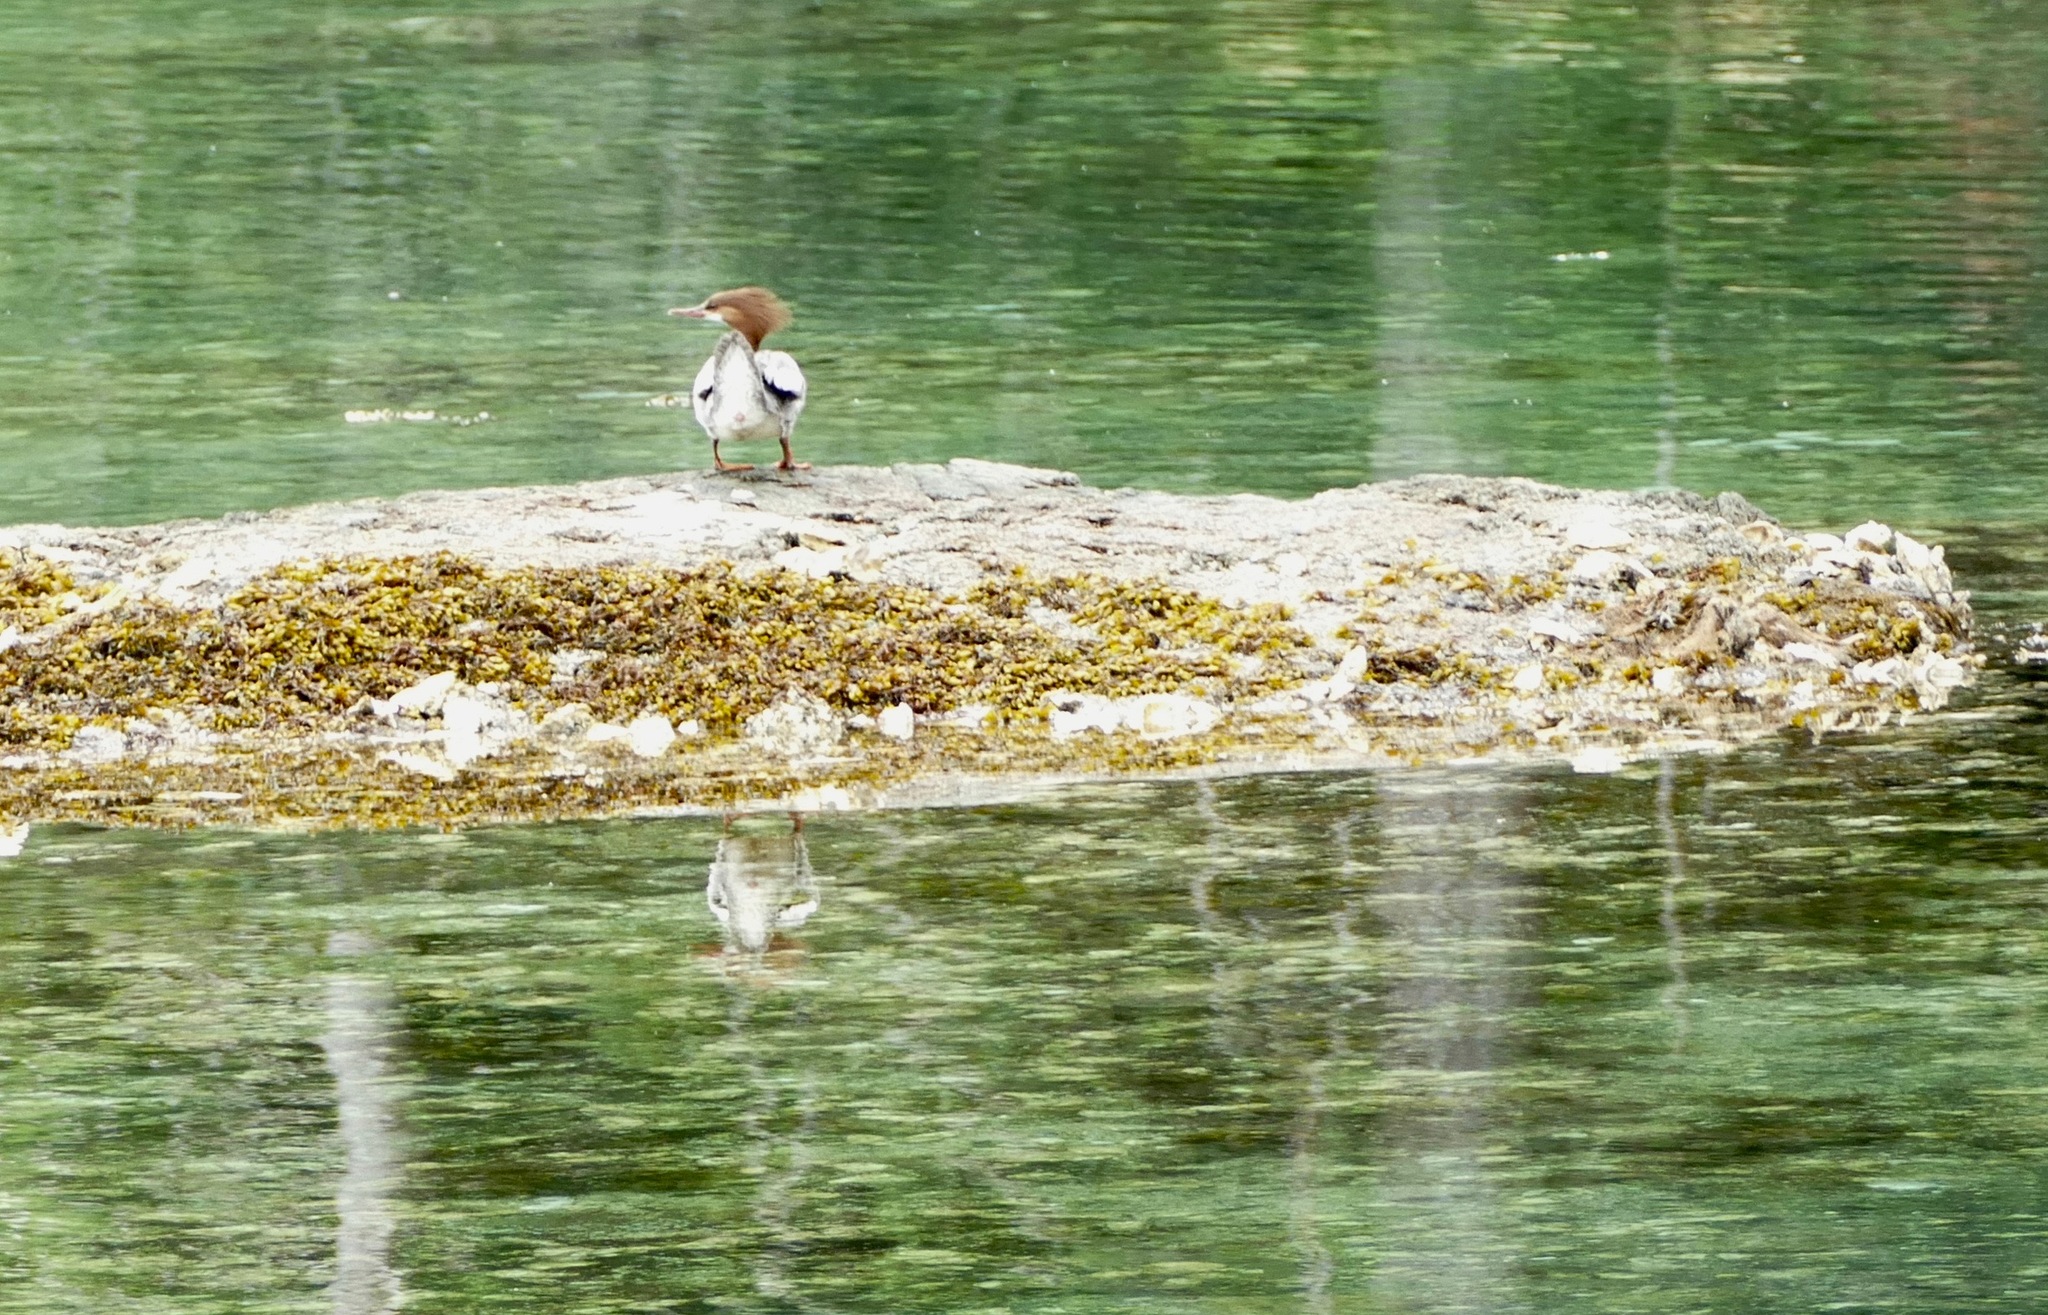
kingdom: Animalia
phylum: Chordata
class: Aves
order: Anseriformes
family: Anatidae
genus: Mergus
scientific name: Mergus merganser
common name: Common merganser
